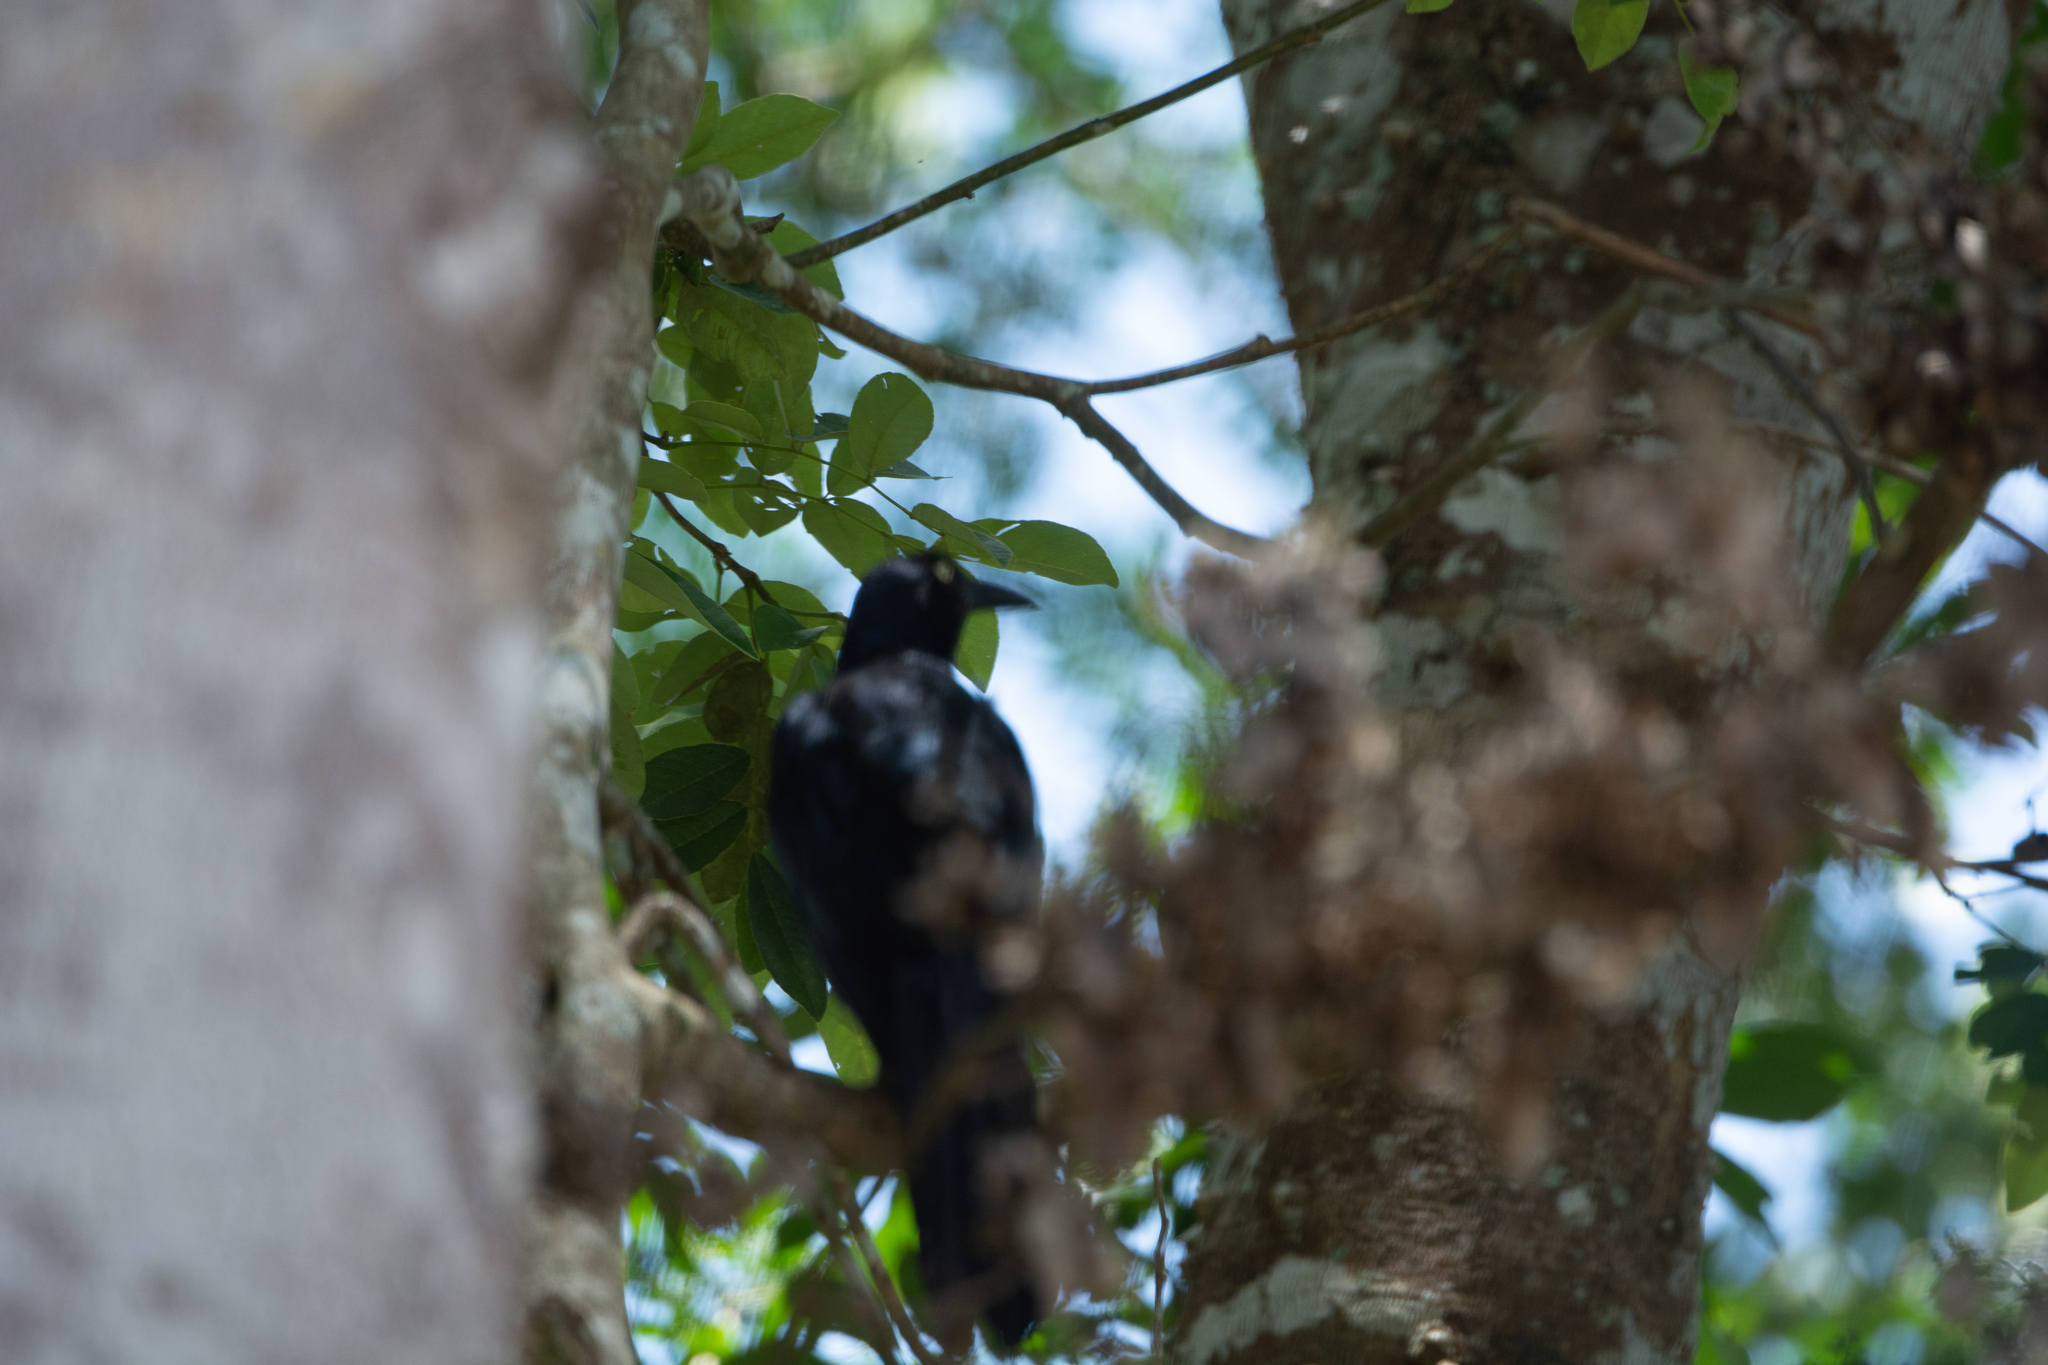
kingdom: Animalia
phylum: Chordata
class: Aves
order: Passeriformes
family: Icteridae
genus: Quiscalus
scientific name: Quiscalus mexicanus
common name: Great-tailed grackle
